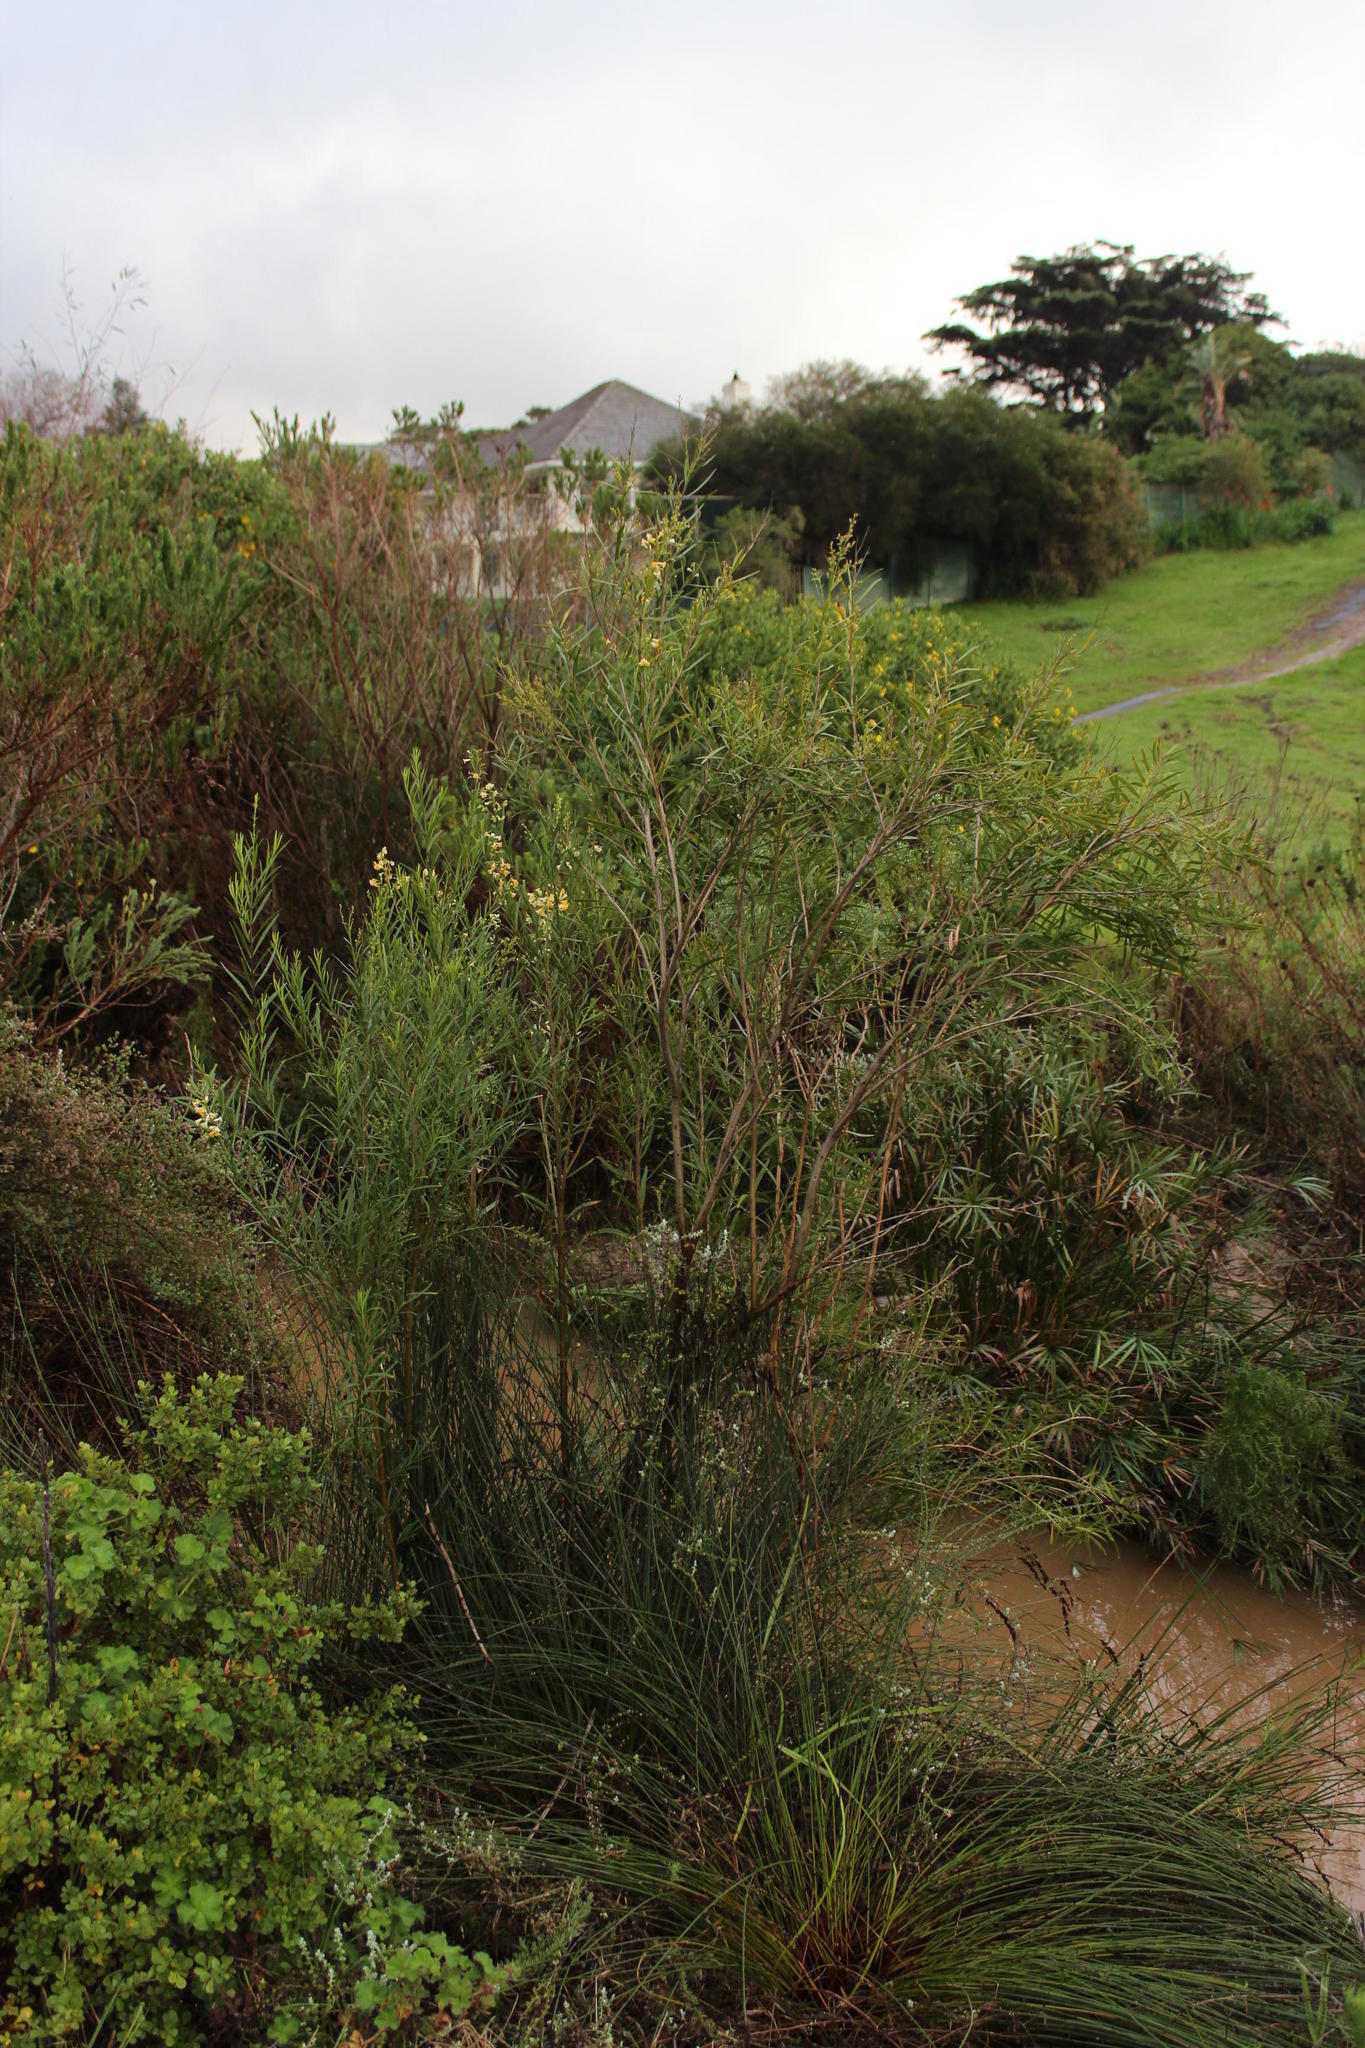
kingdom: Plantae
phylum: Tracheophyta
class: Magnoliopsida
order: Lamiales
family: Scrophulariaceae
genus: Freylinia
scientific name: Freylinia lanceolata
